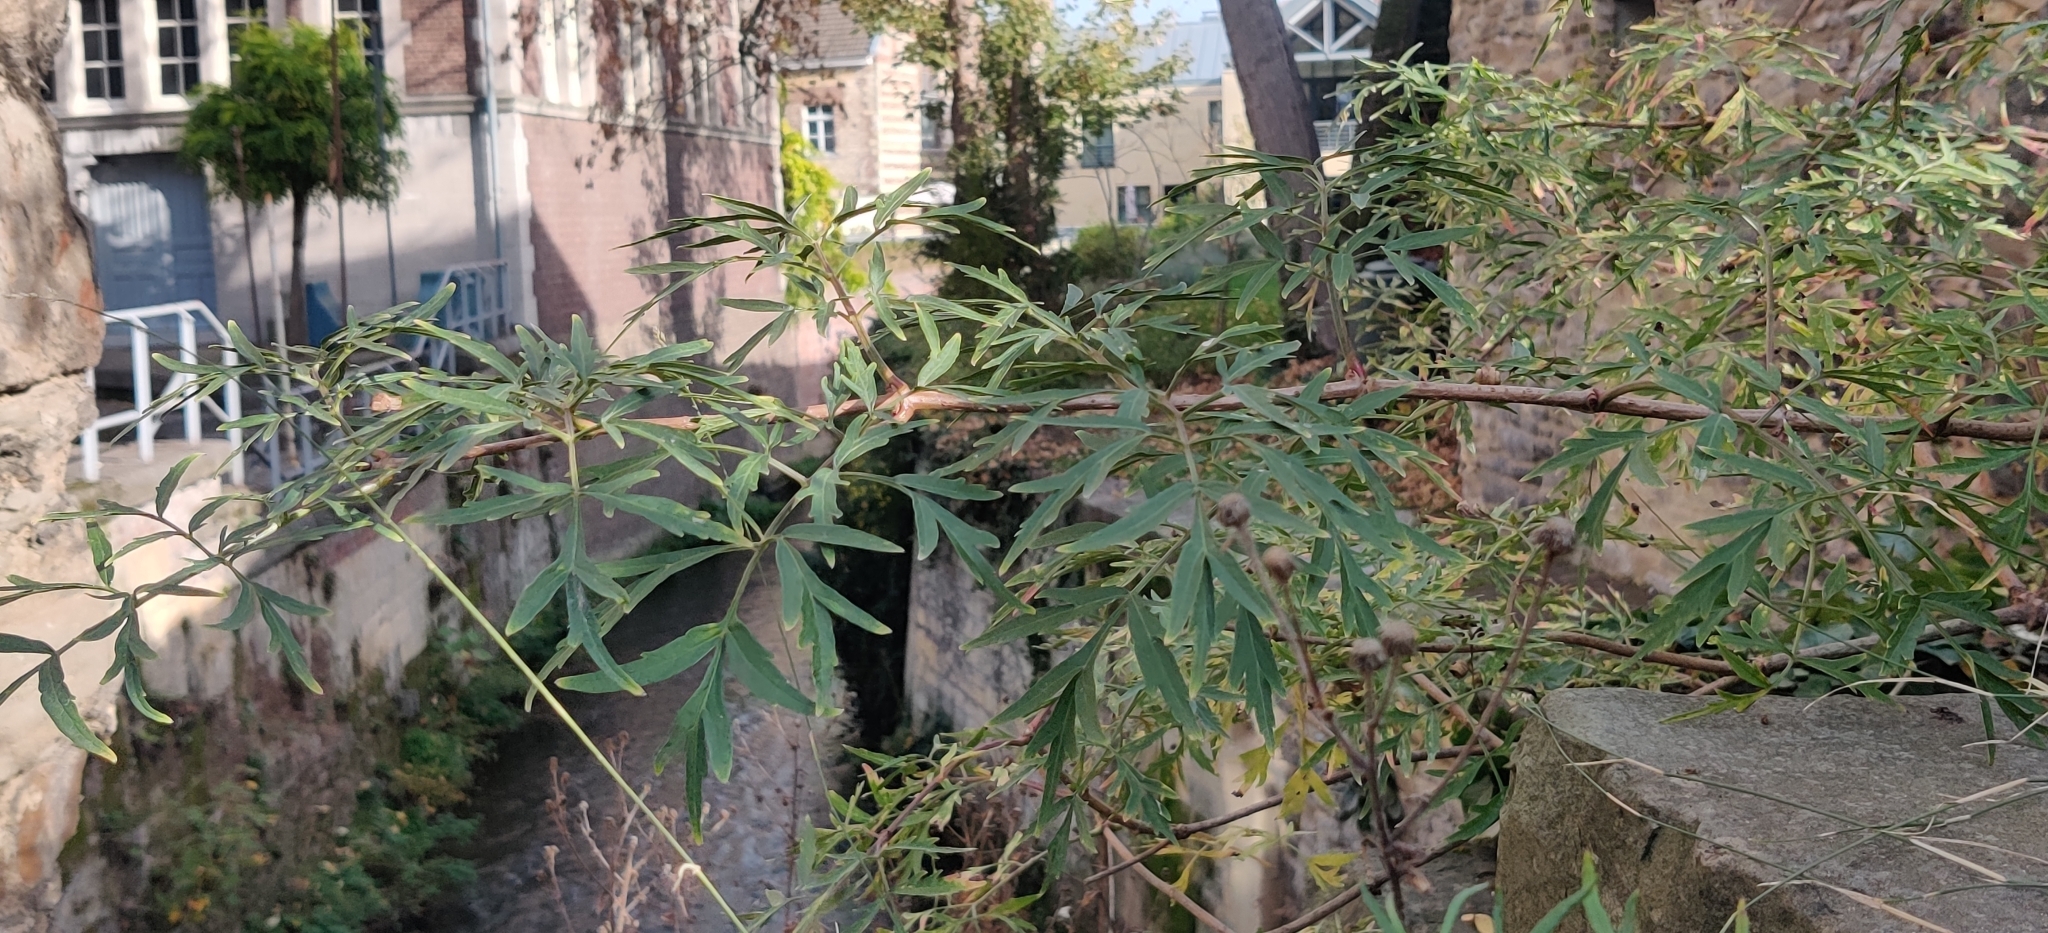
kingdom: Plantae
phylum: Tracheophyta
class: Magnoliopsida
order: Dipsacales
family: Viburnaceae
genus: Sambucus
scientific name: Sambucus nigra
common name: Elder
